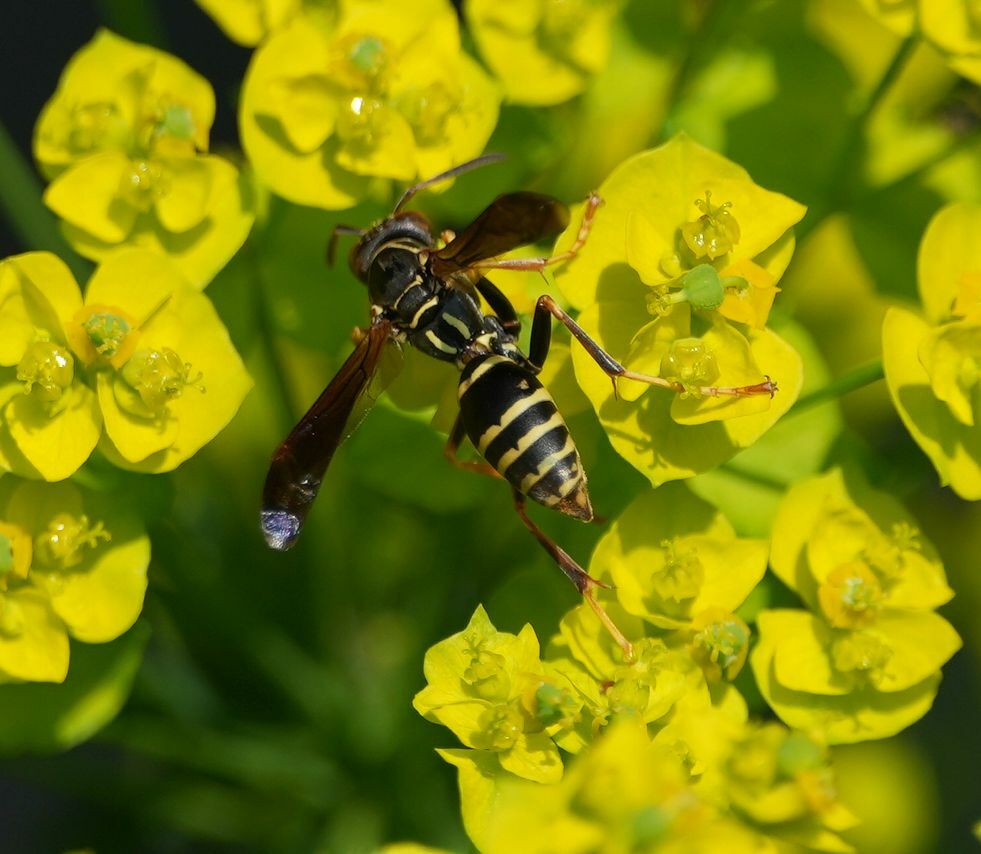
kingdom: Animalia
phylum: Arthropoda
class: Insecta
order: Hymenoptera
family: Eumenidae
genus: Polistes
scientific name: Polistes fuscatus
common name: Dark paper wasp
